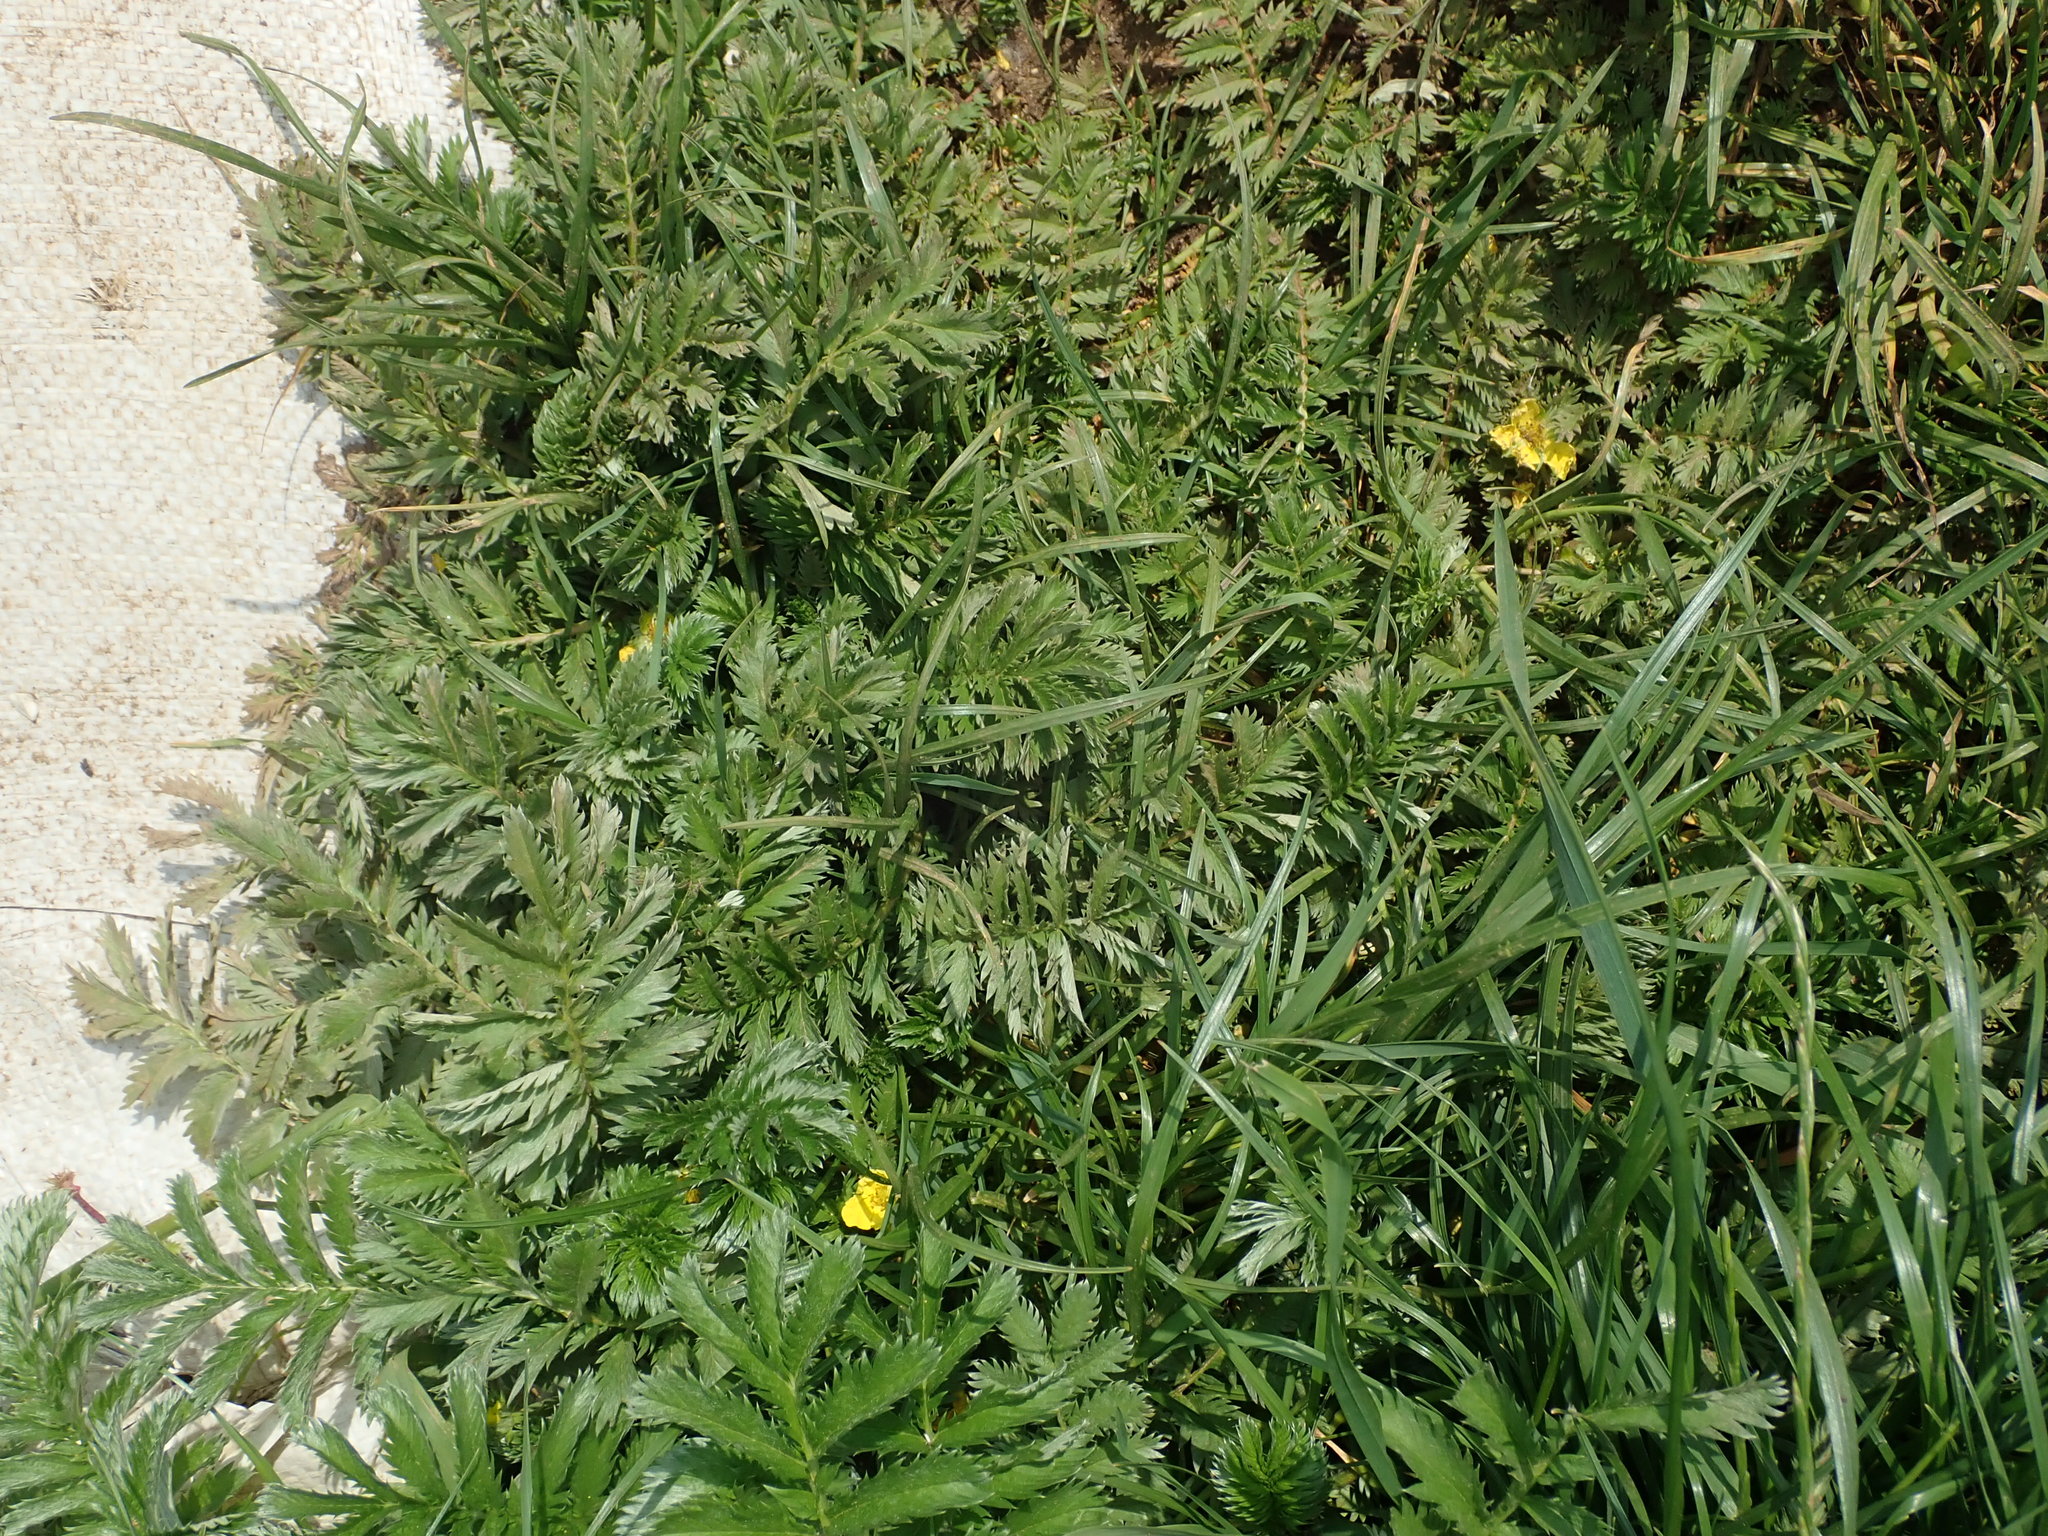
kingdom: Plantae
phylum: Tracheophyta
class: Magnoliopsida
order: Rosales
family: Rosaceae
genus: Argentina
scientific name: Argentina anserina
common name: Common silverweed
